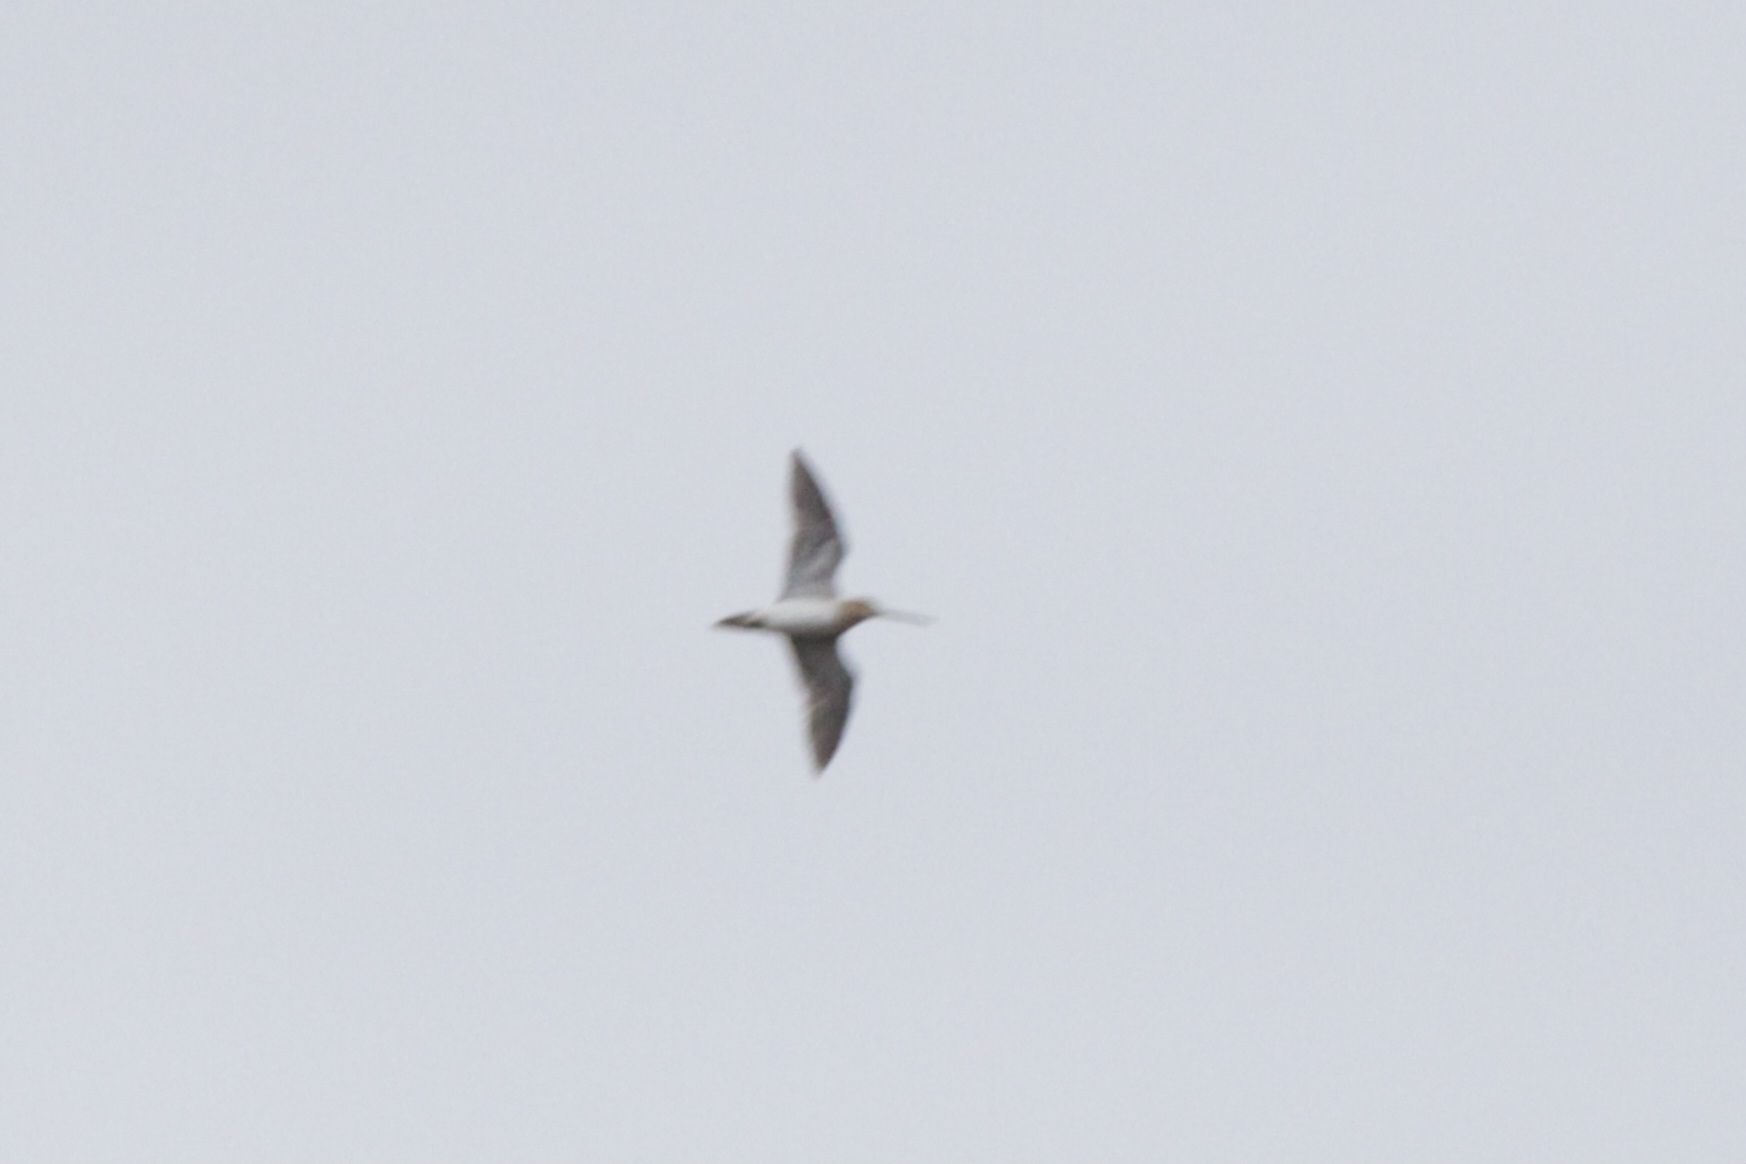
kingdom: Animalia
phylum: Chordata
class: Aves
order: Charadriiformes
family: Scolopacidae
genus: Gallinago
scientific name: Gallinago gallinago
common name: Common snipe
